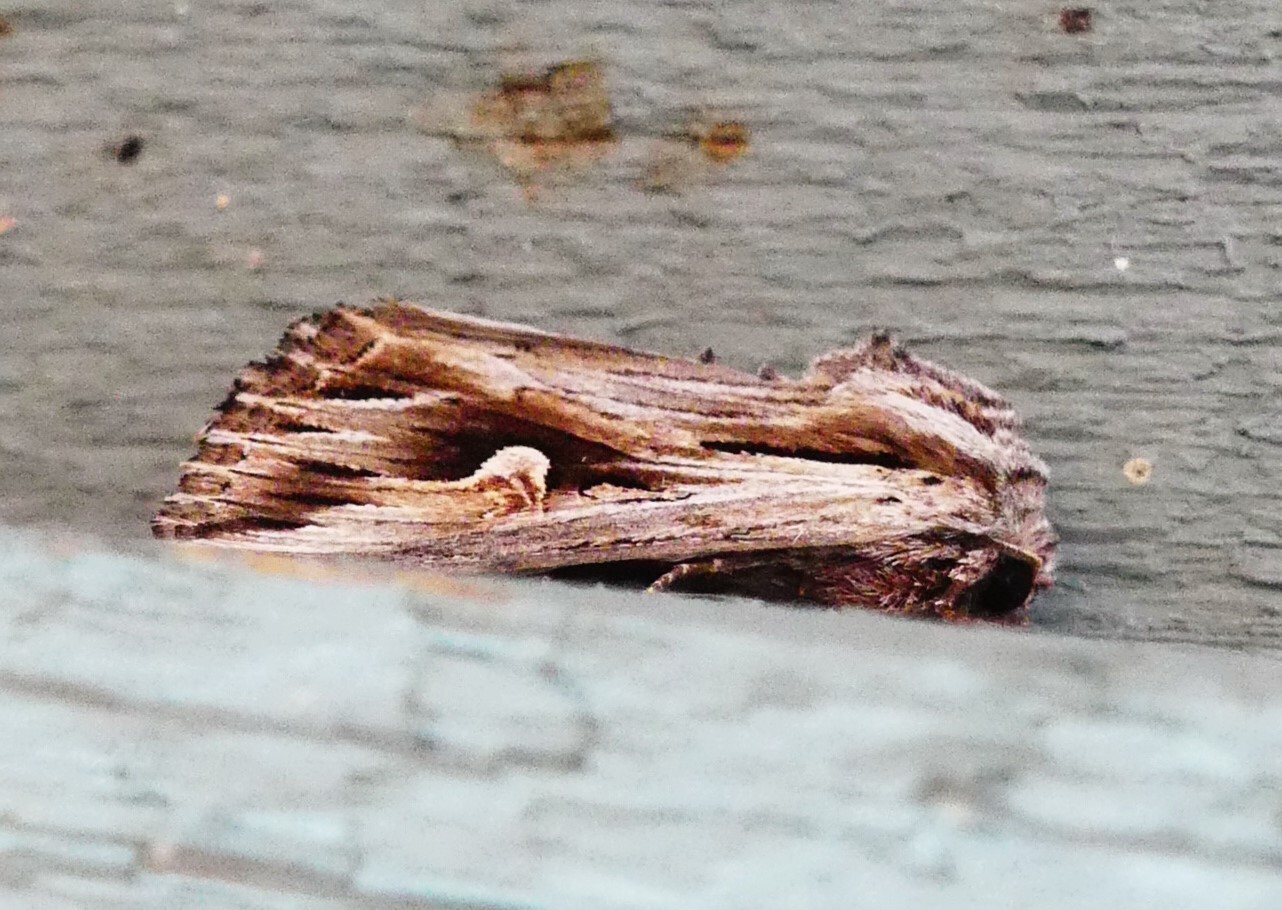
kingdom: Animalia
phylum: Arthropoda
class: Insecta
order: Lepidoptera
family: Noctuidae
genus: Nedra
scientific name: Nedra ramosula
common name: Gray half-spot
